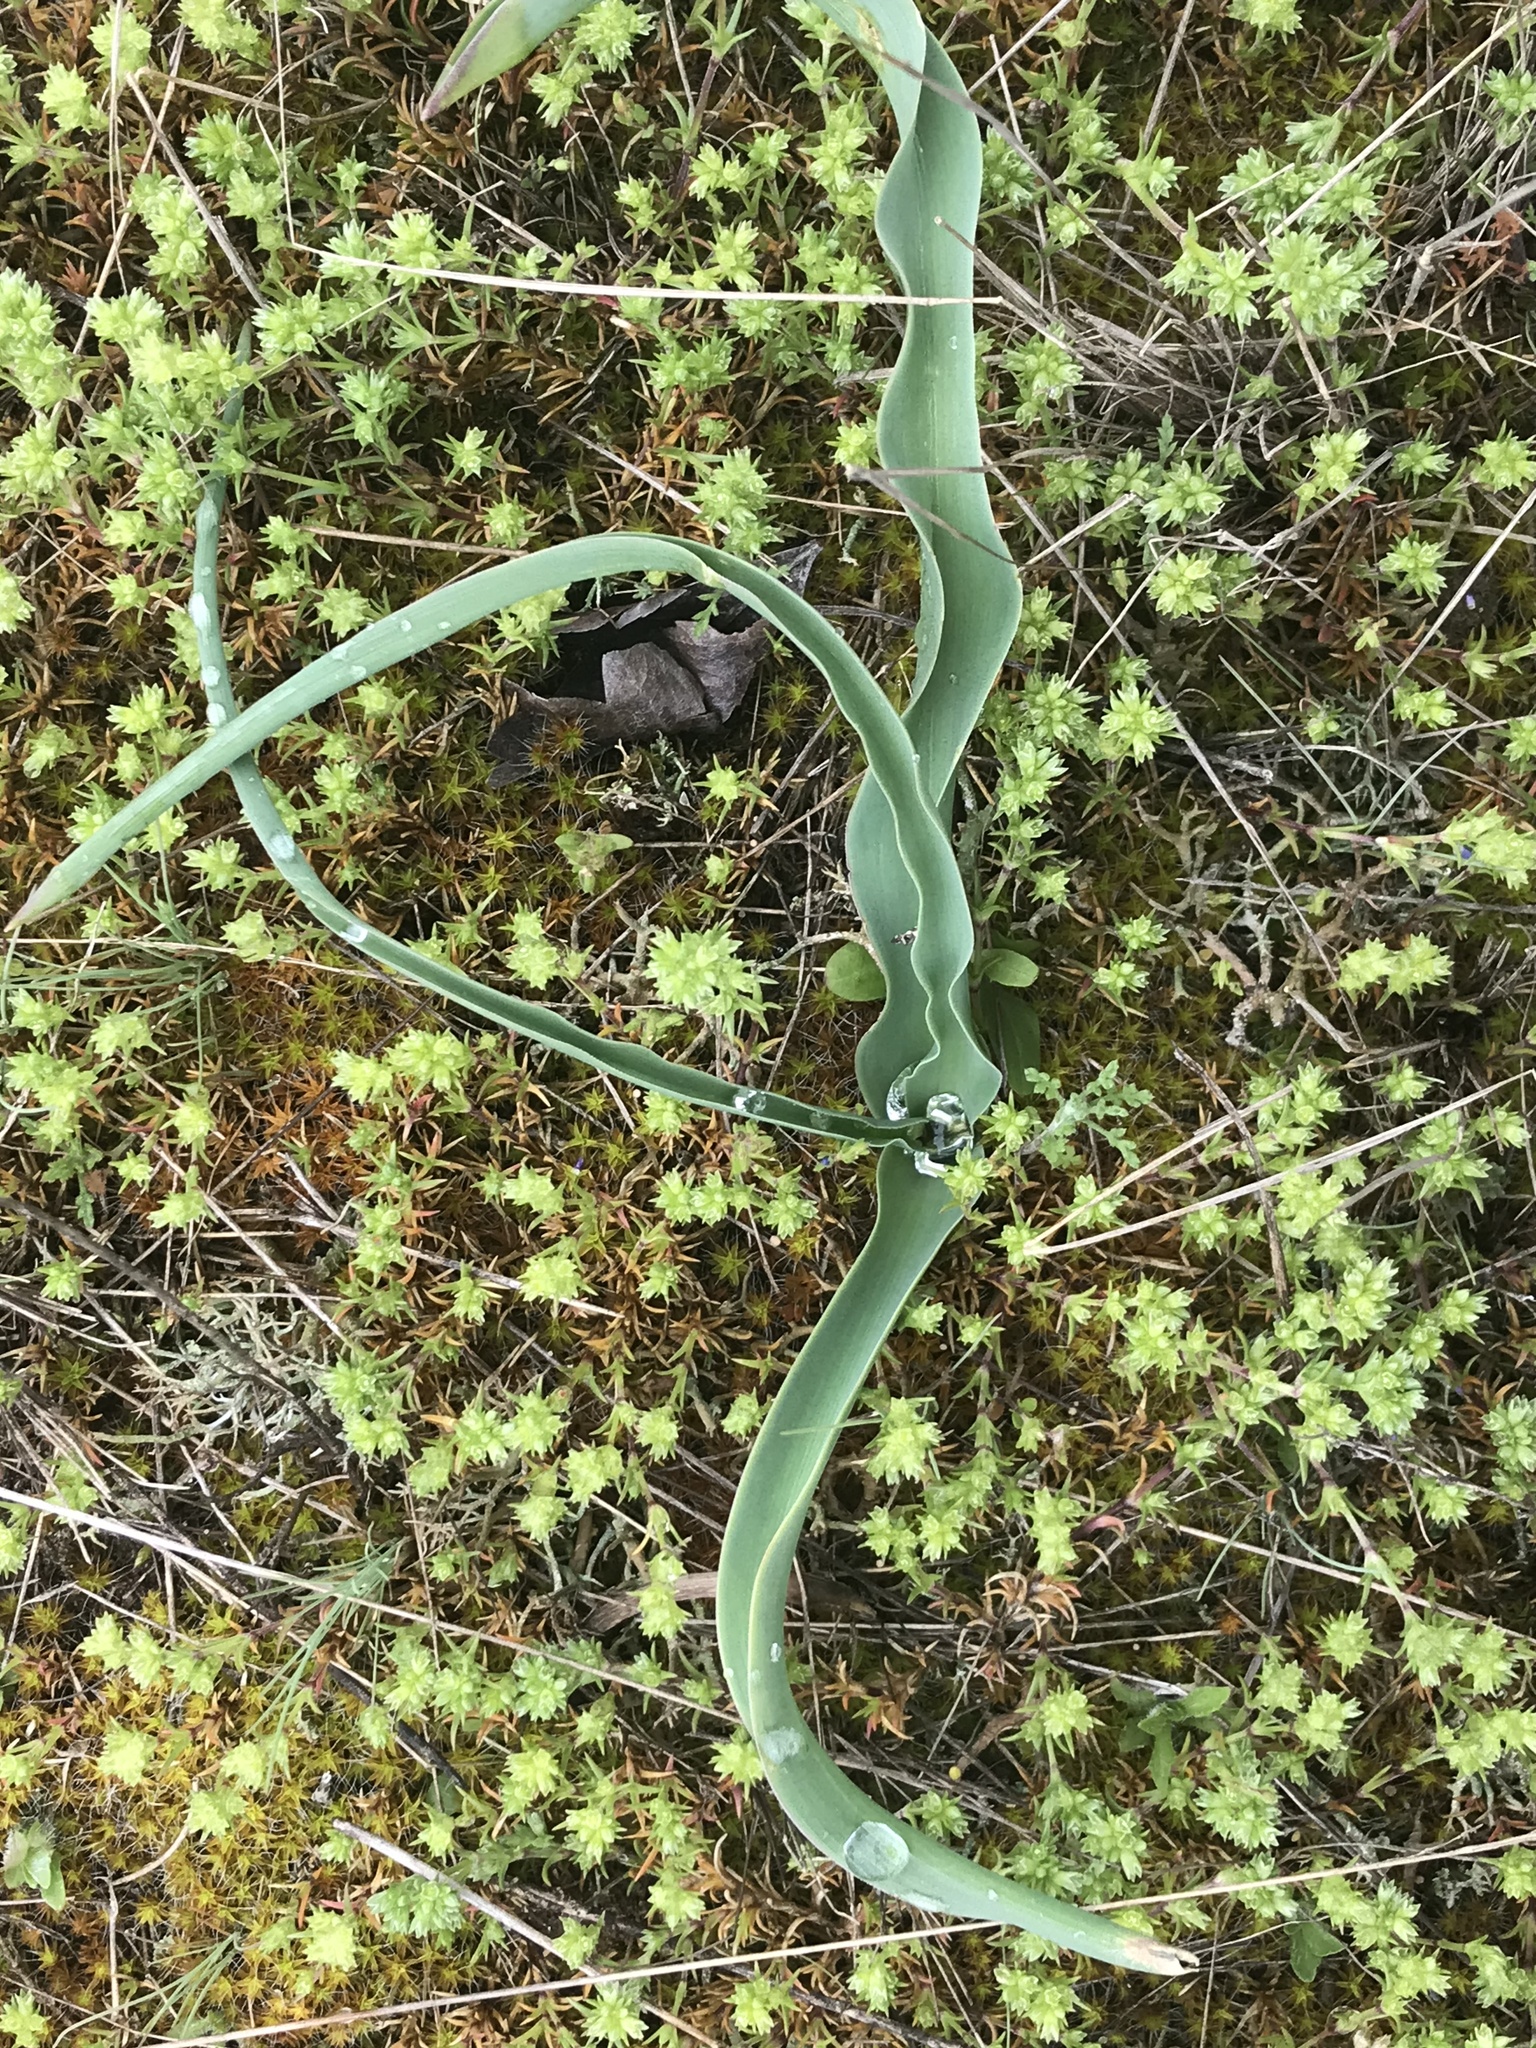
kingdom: Plantae
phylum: Tracheophyta
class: Liliopsida
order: Asparagales
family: Asparagaceae
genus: Muscari
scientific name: Muscari comosum
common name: Tassel hyacinth
